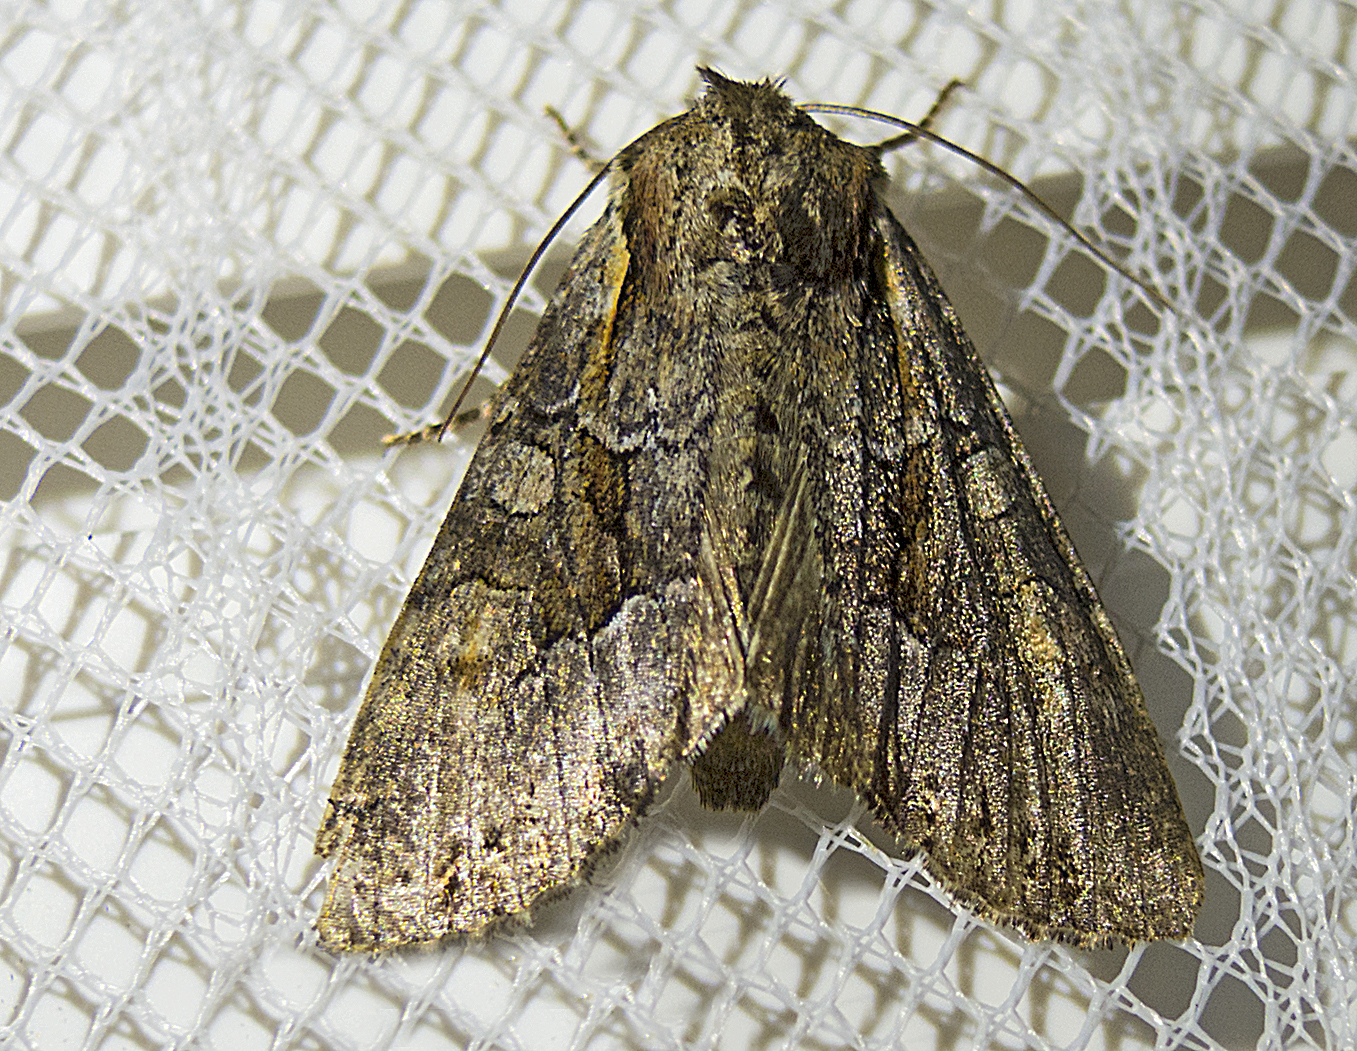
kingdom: Animalia
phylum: Arthropoda
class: Insecta
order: Lepidoptera
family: Noctuidae
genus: Lacanobia
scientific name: Lacanobia
